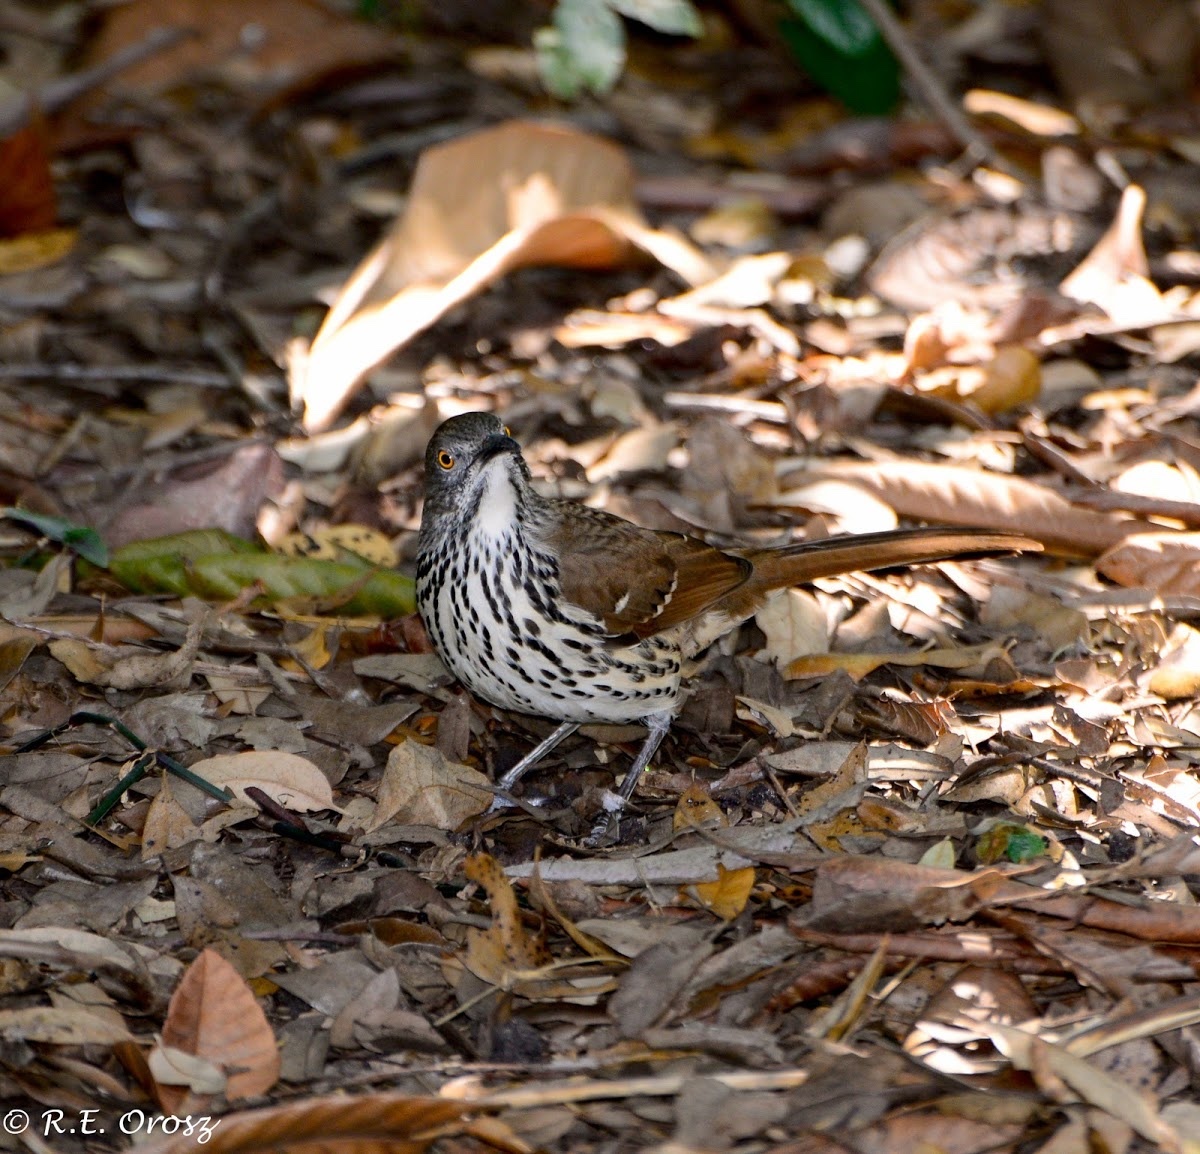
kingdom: Animalia
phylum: Chordata
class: Aves
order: Passeriformes
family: Mimidae
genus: Toxostoma
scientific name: Toxostoma longirostre
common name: Long-billed thrasher
